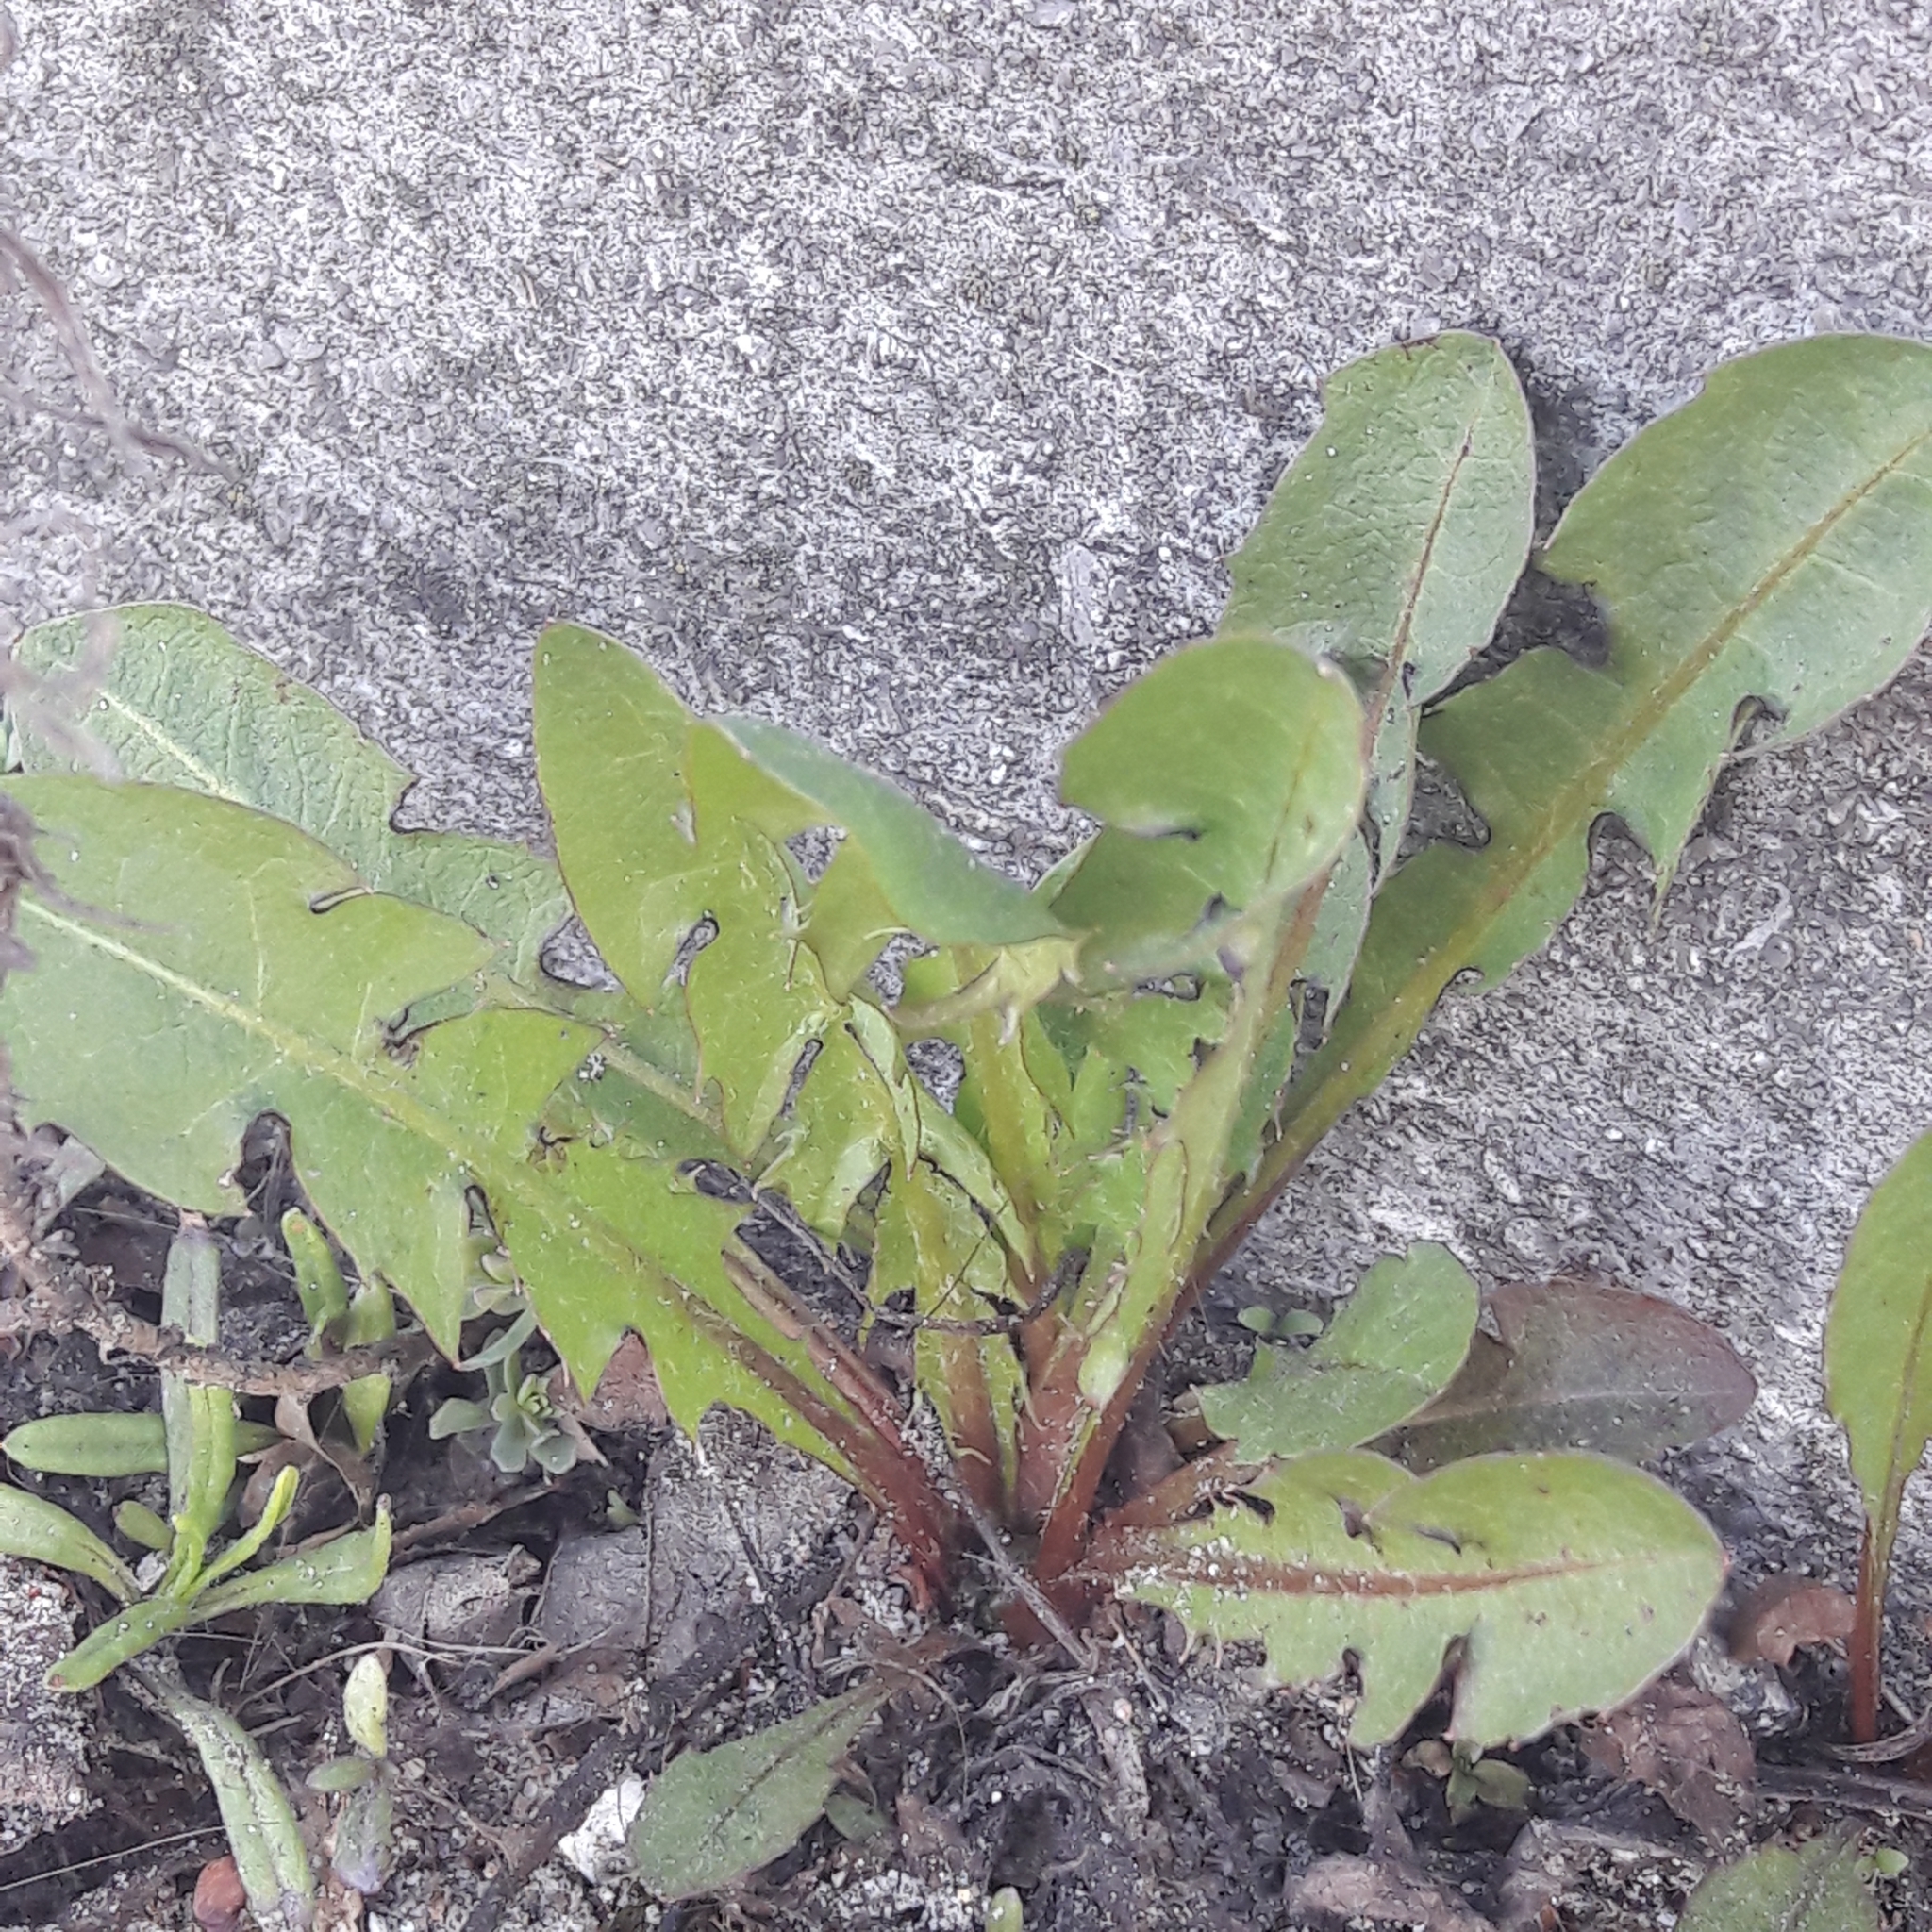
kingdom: Plantae
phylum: Tracheophyta
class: Magnoliopsida
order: Asterales
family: Asteraceae
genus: Taraxacum
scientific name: Taraxacum officinale
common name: Common dandelion
